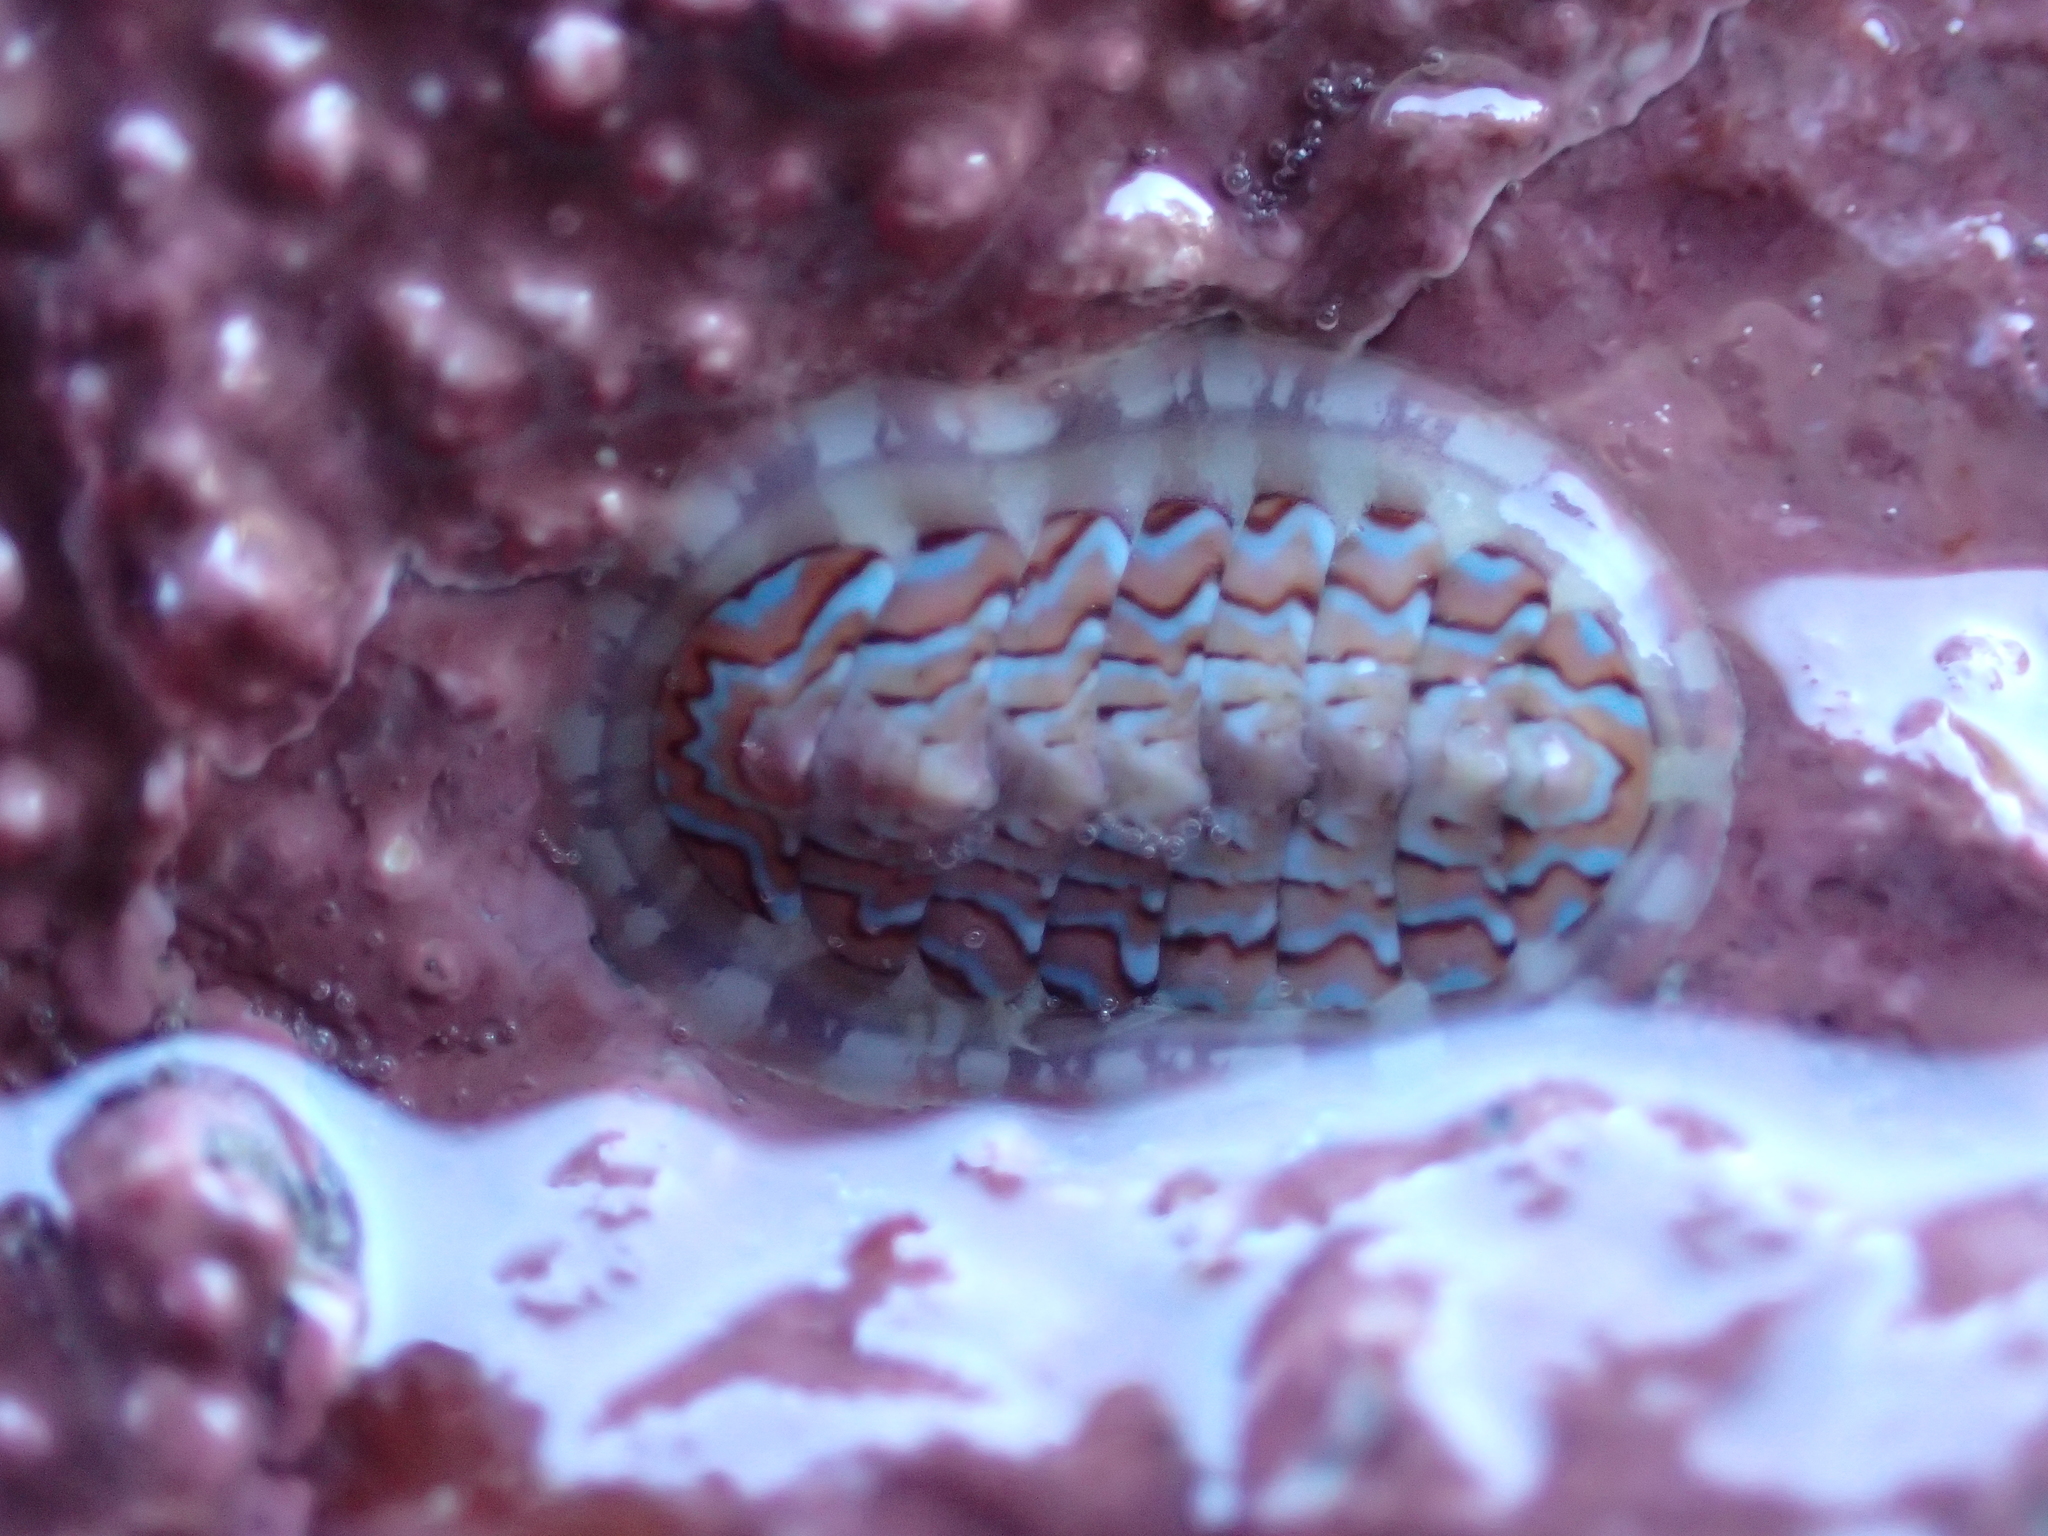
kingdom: Animalia
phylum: Mollusca
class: Polyplacophora
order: Chitonida
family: Tonicellidae
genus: Tonicella
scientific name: Tonicella lokii
